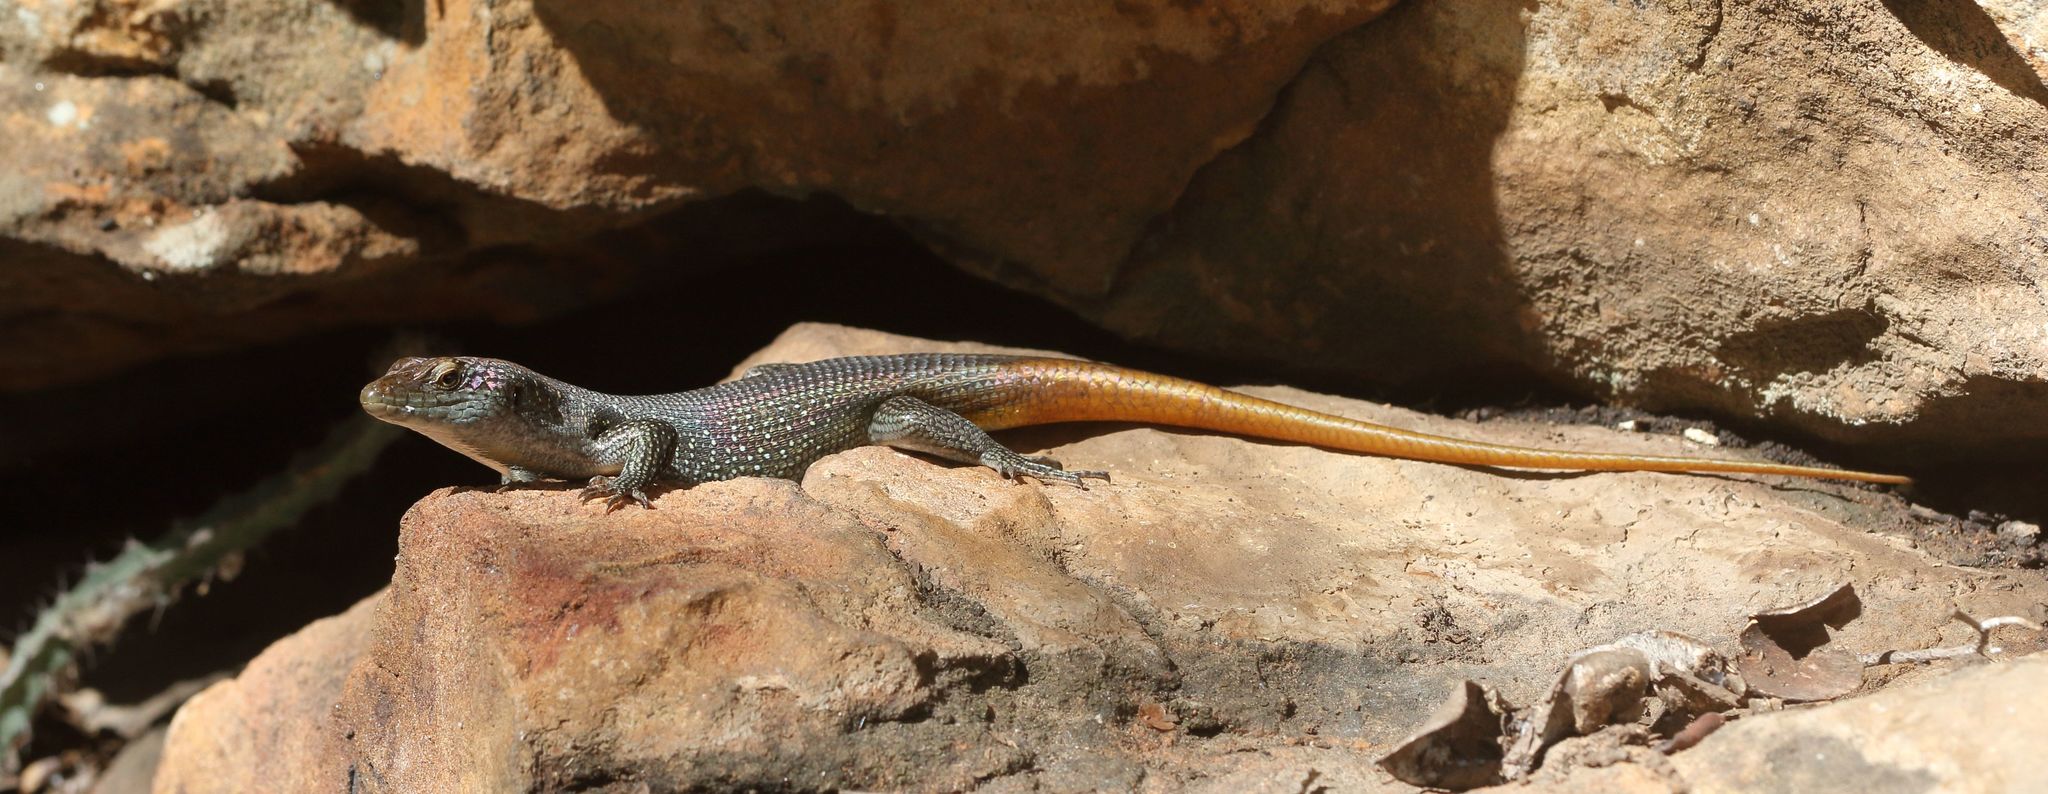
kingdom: Animalia
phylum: Chordata
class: Squamata
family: Scincidae
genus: Trachylepis
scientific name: Trachylepis margaritifera
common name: Rainbow skink
